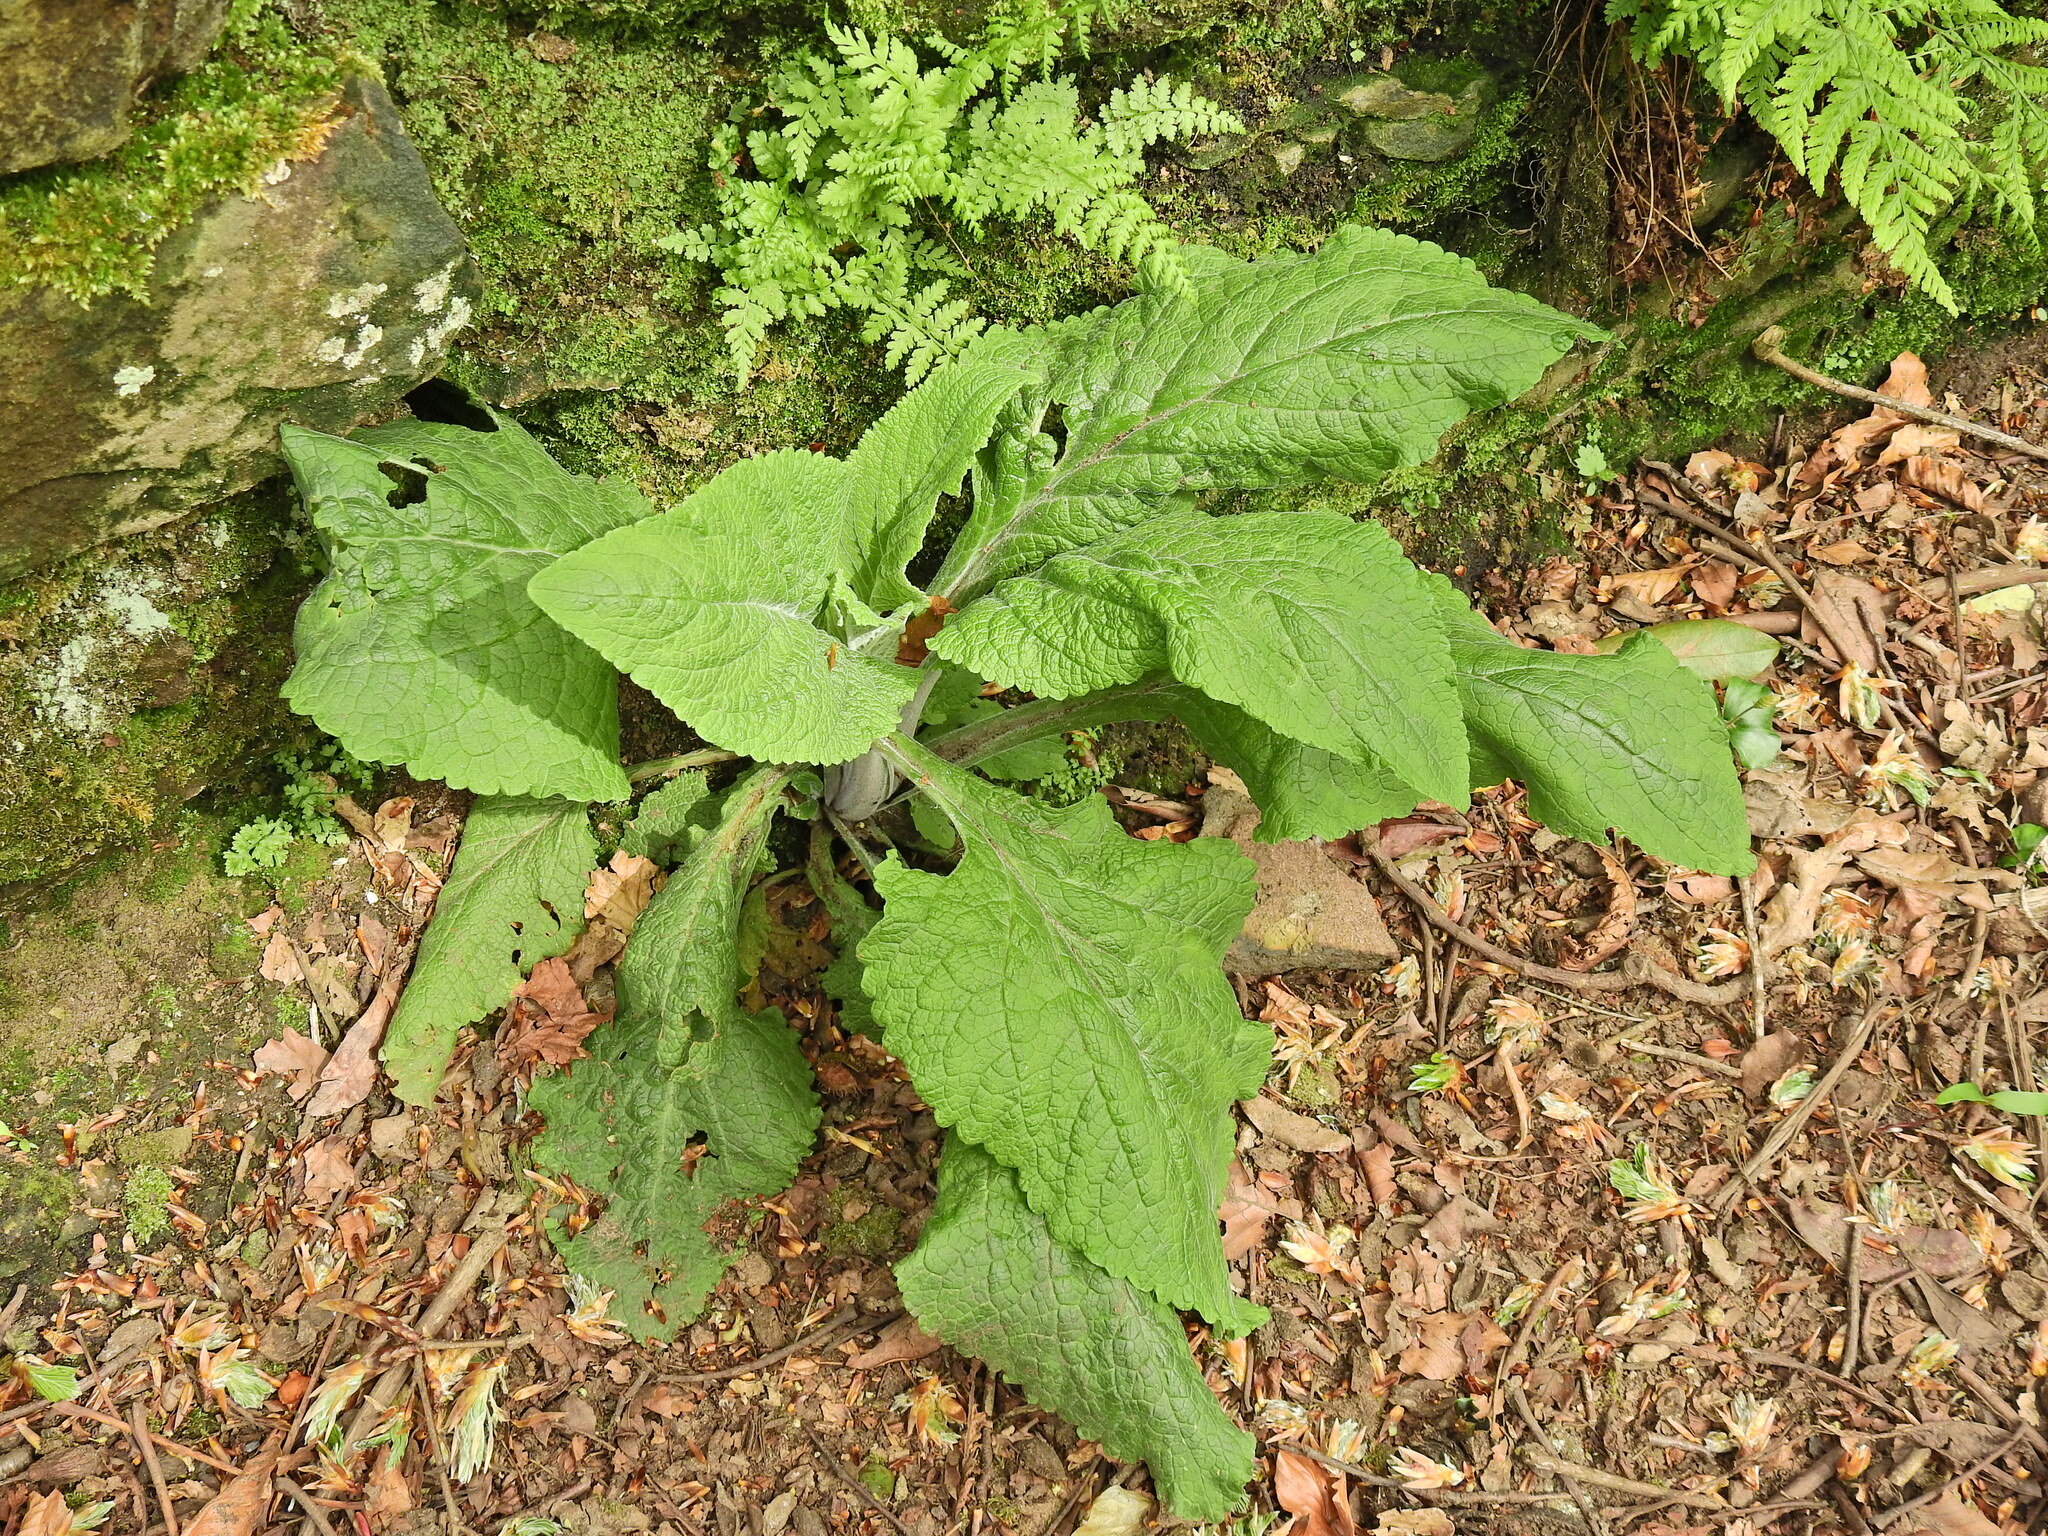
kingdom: Plantae
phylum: Tracheophyta
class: Magnoliopsida
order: Lamiales
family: Plantaginaceae
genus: Digitalis
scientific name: Digitalis purpurea
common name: Foxglove
